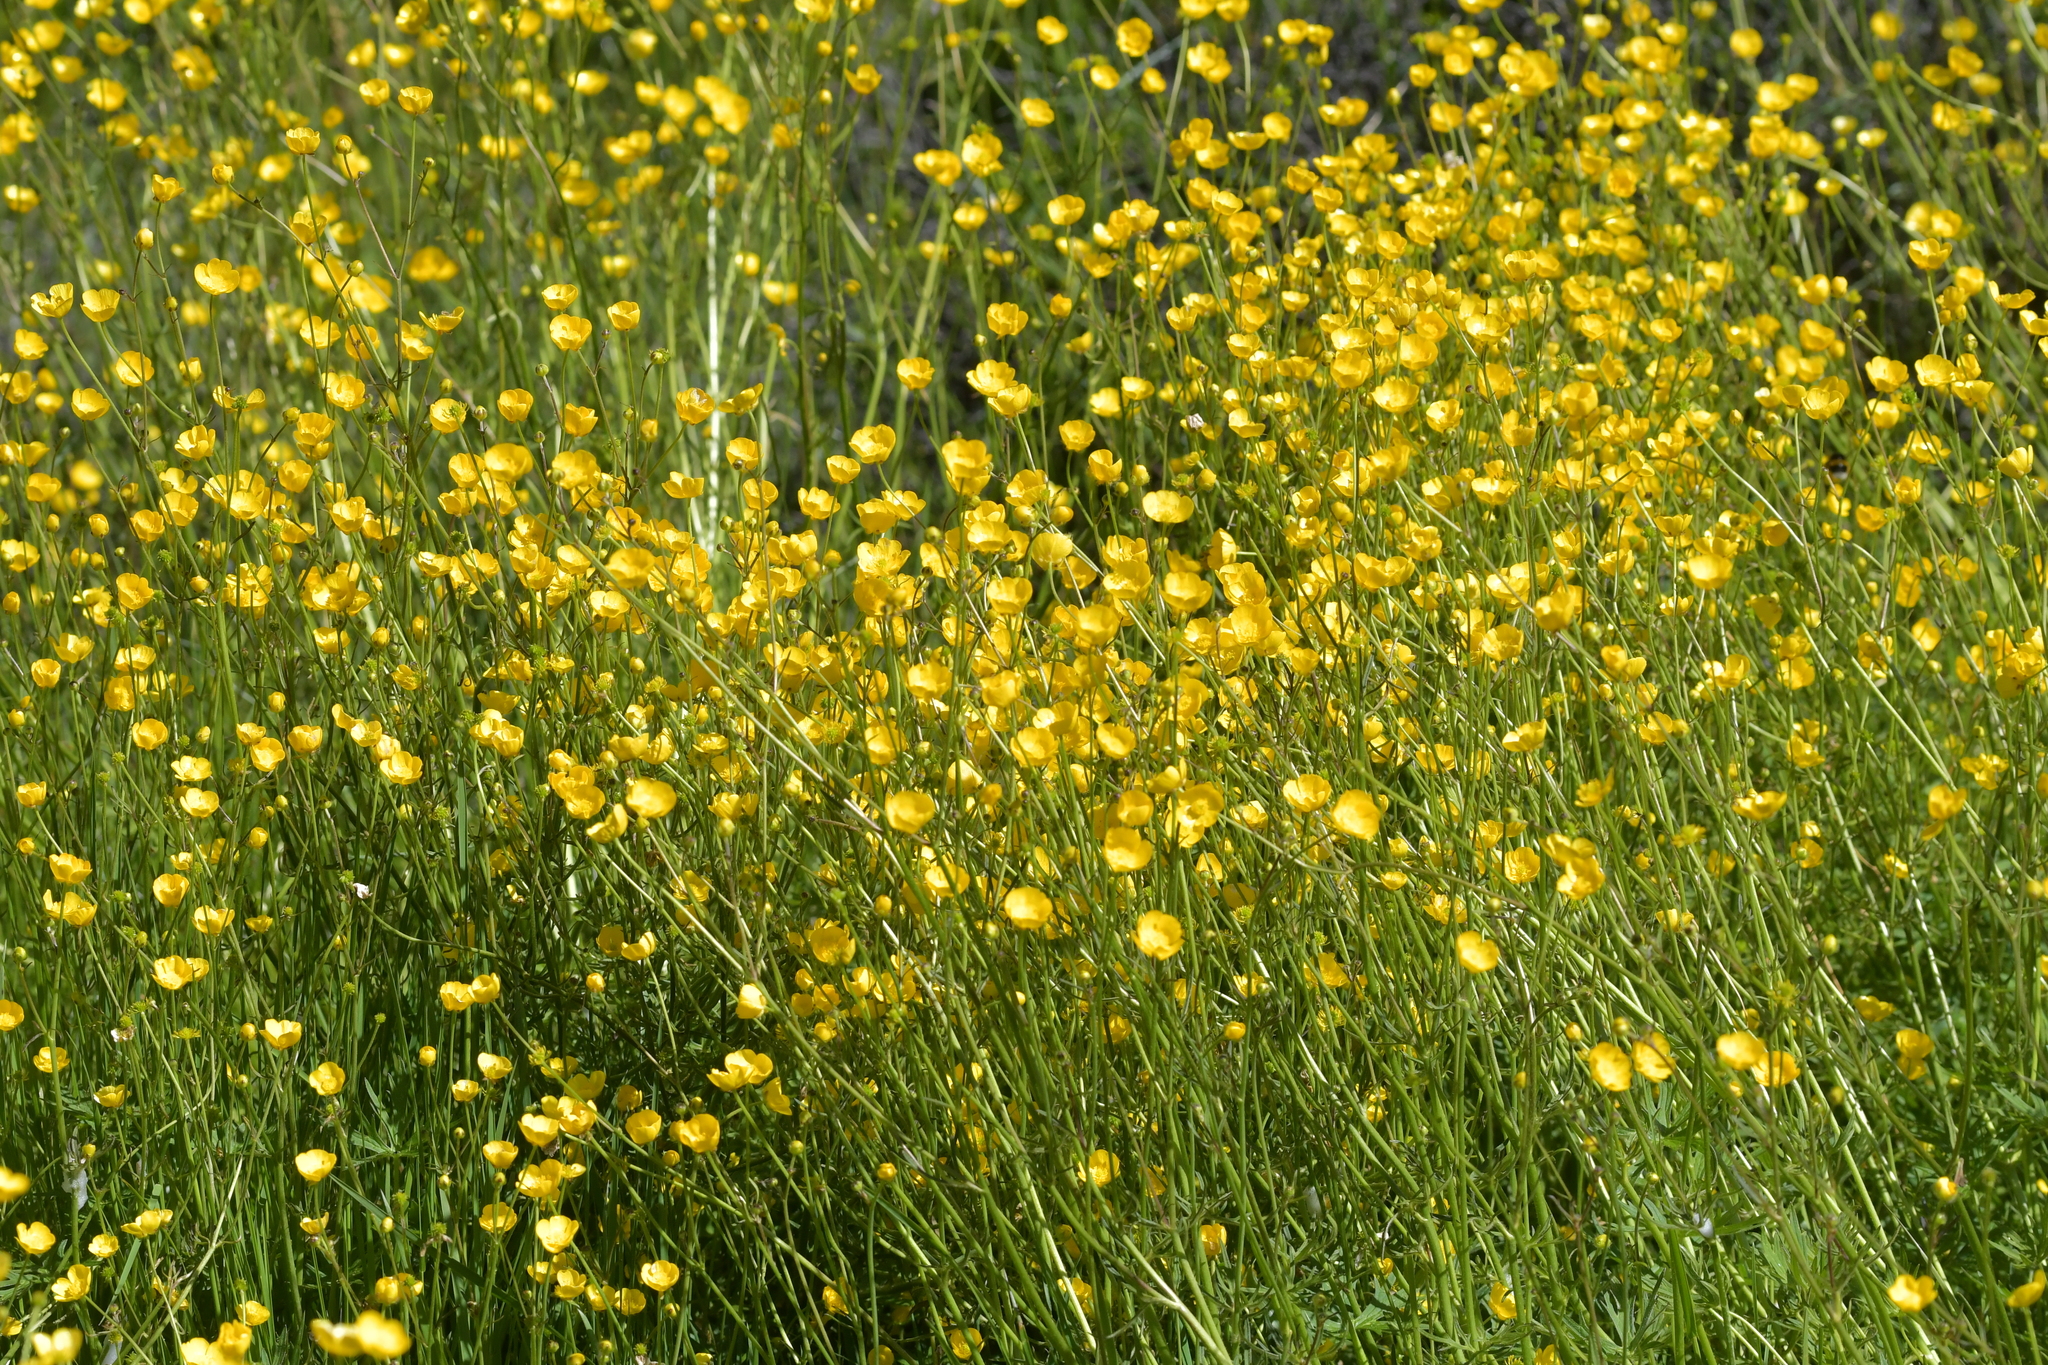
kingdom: Plantae
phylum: Tracheophyta
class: Magnoliopsida
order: Ranunculales
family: Ranunculaceae
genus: Ranunculus
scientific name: Ranunculus acris
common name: Meadow buttercup
